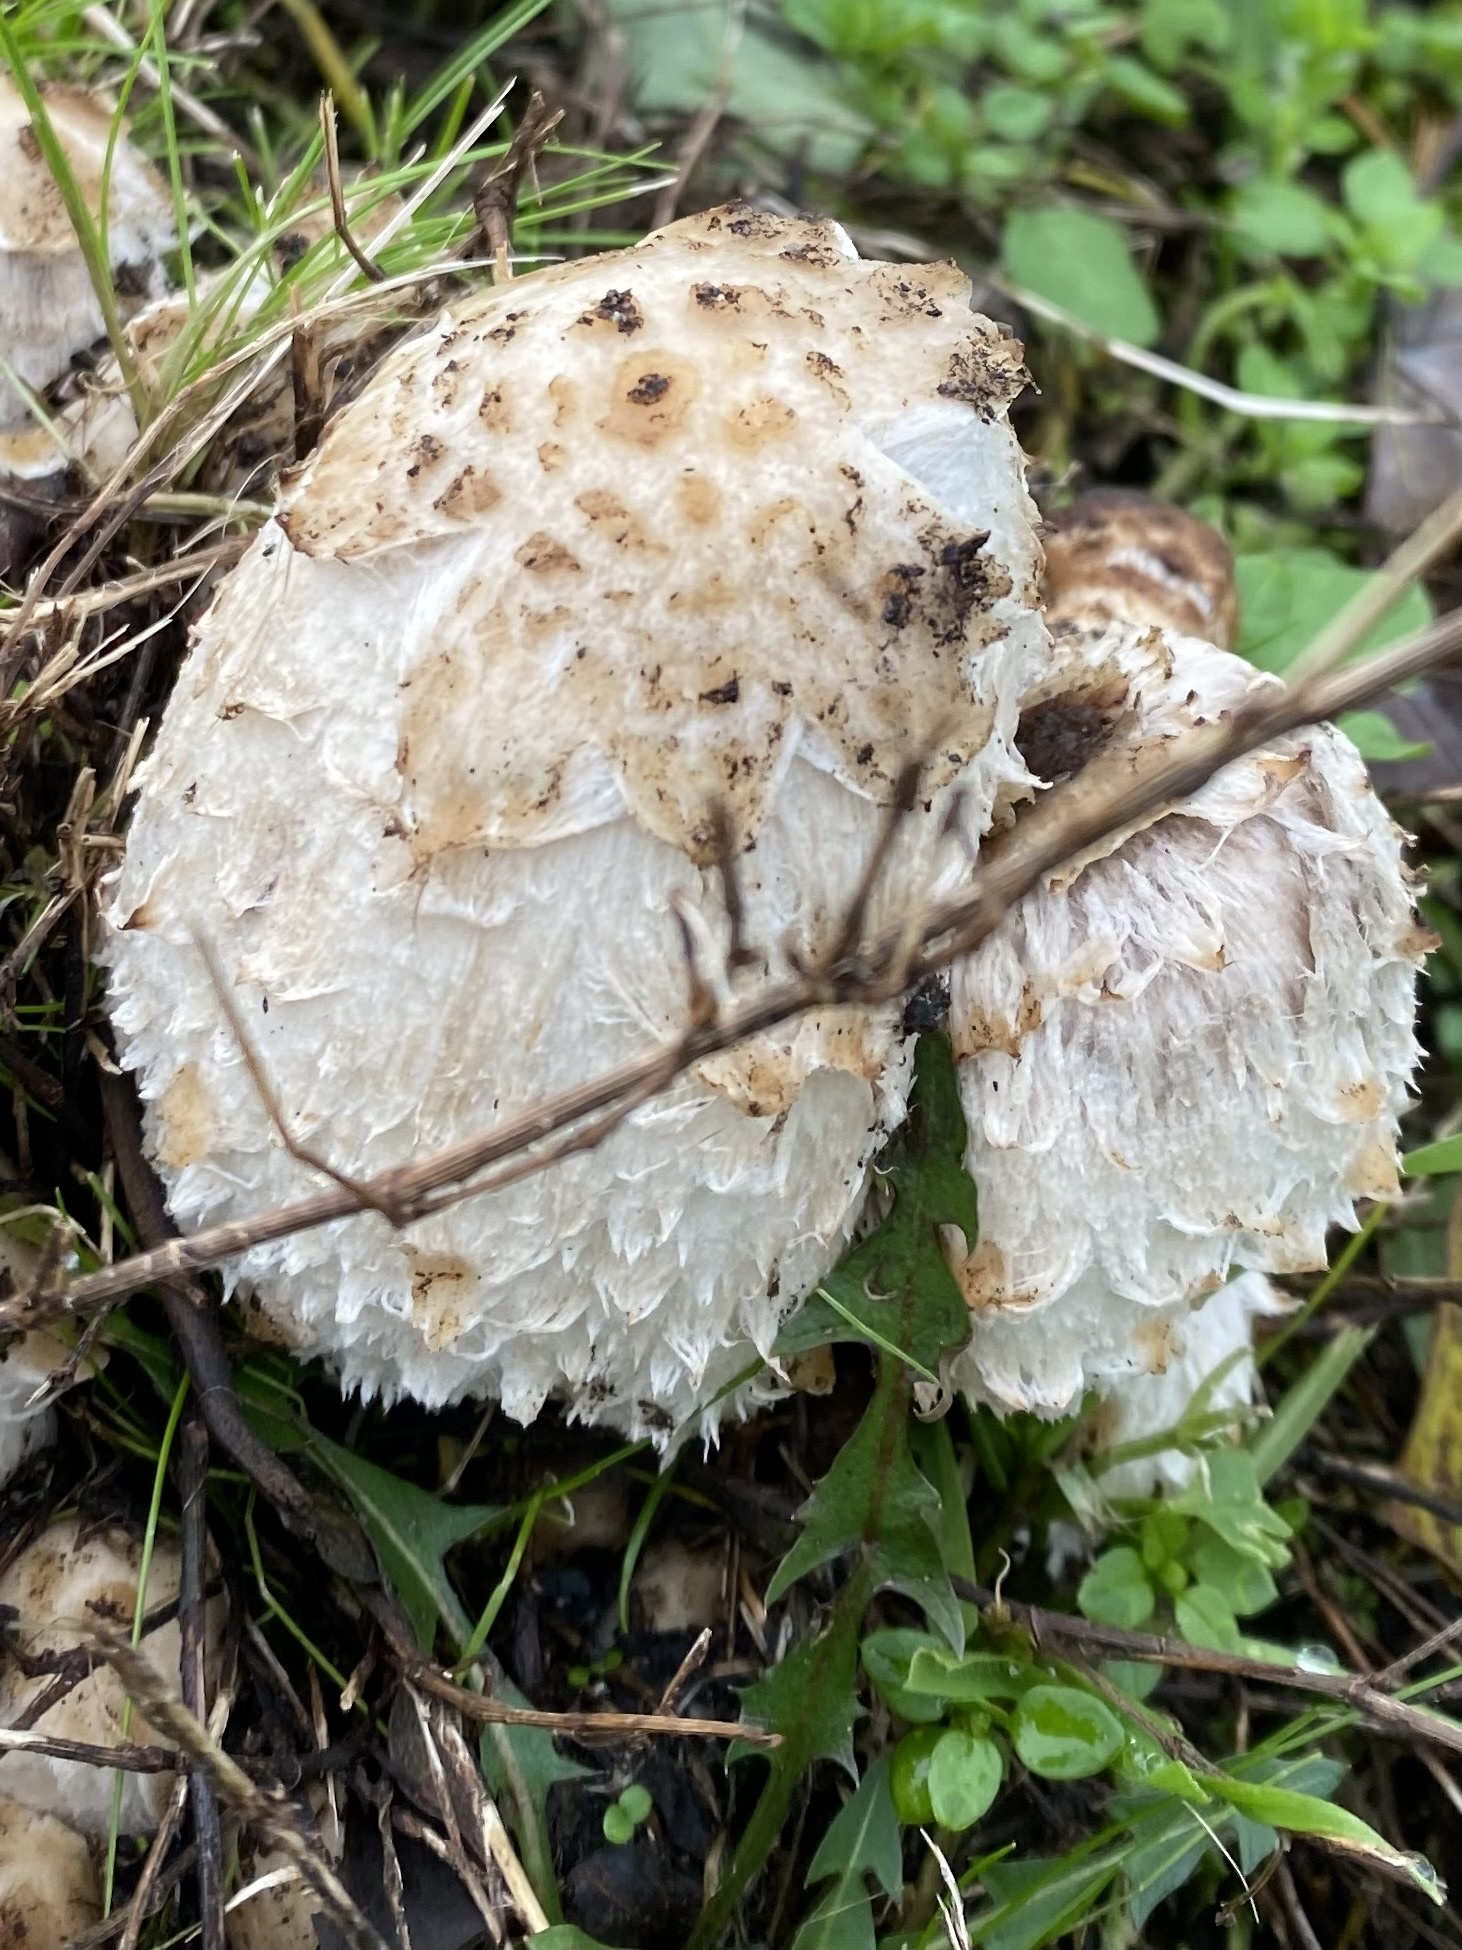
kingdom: Fungi
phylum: Basidiomycota
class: Agaricomycetes
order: Agaricales
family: Agaricaceae
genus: Coprinus
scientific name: Coprinus comatus
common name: Lawyer's wig
